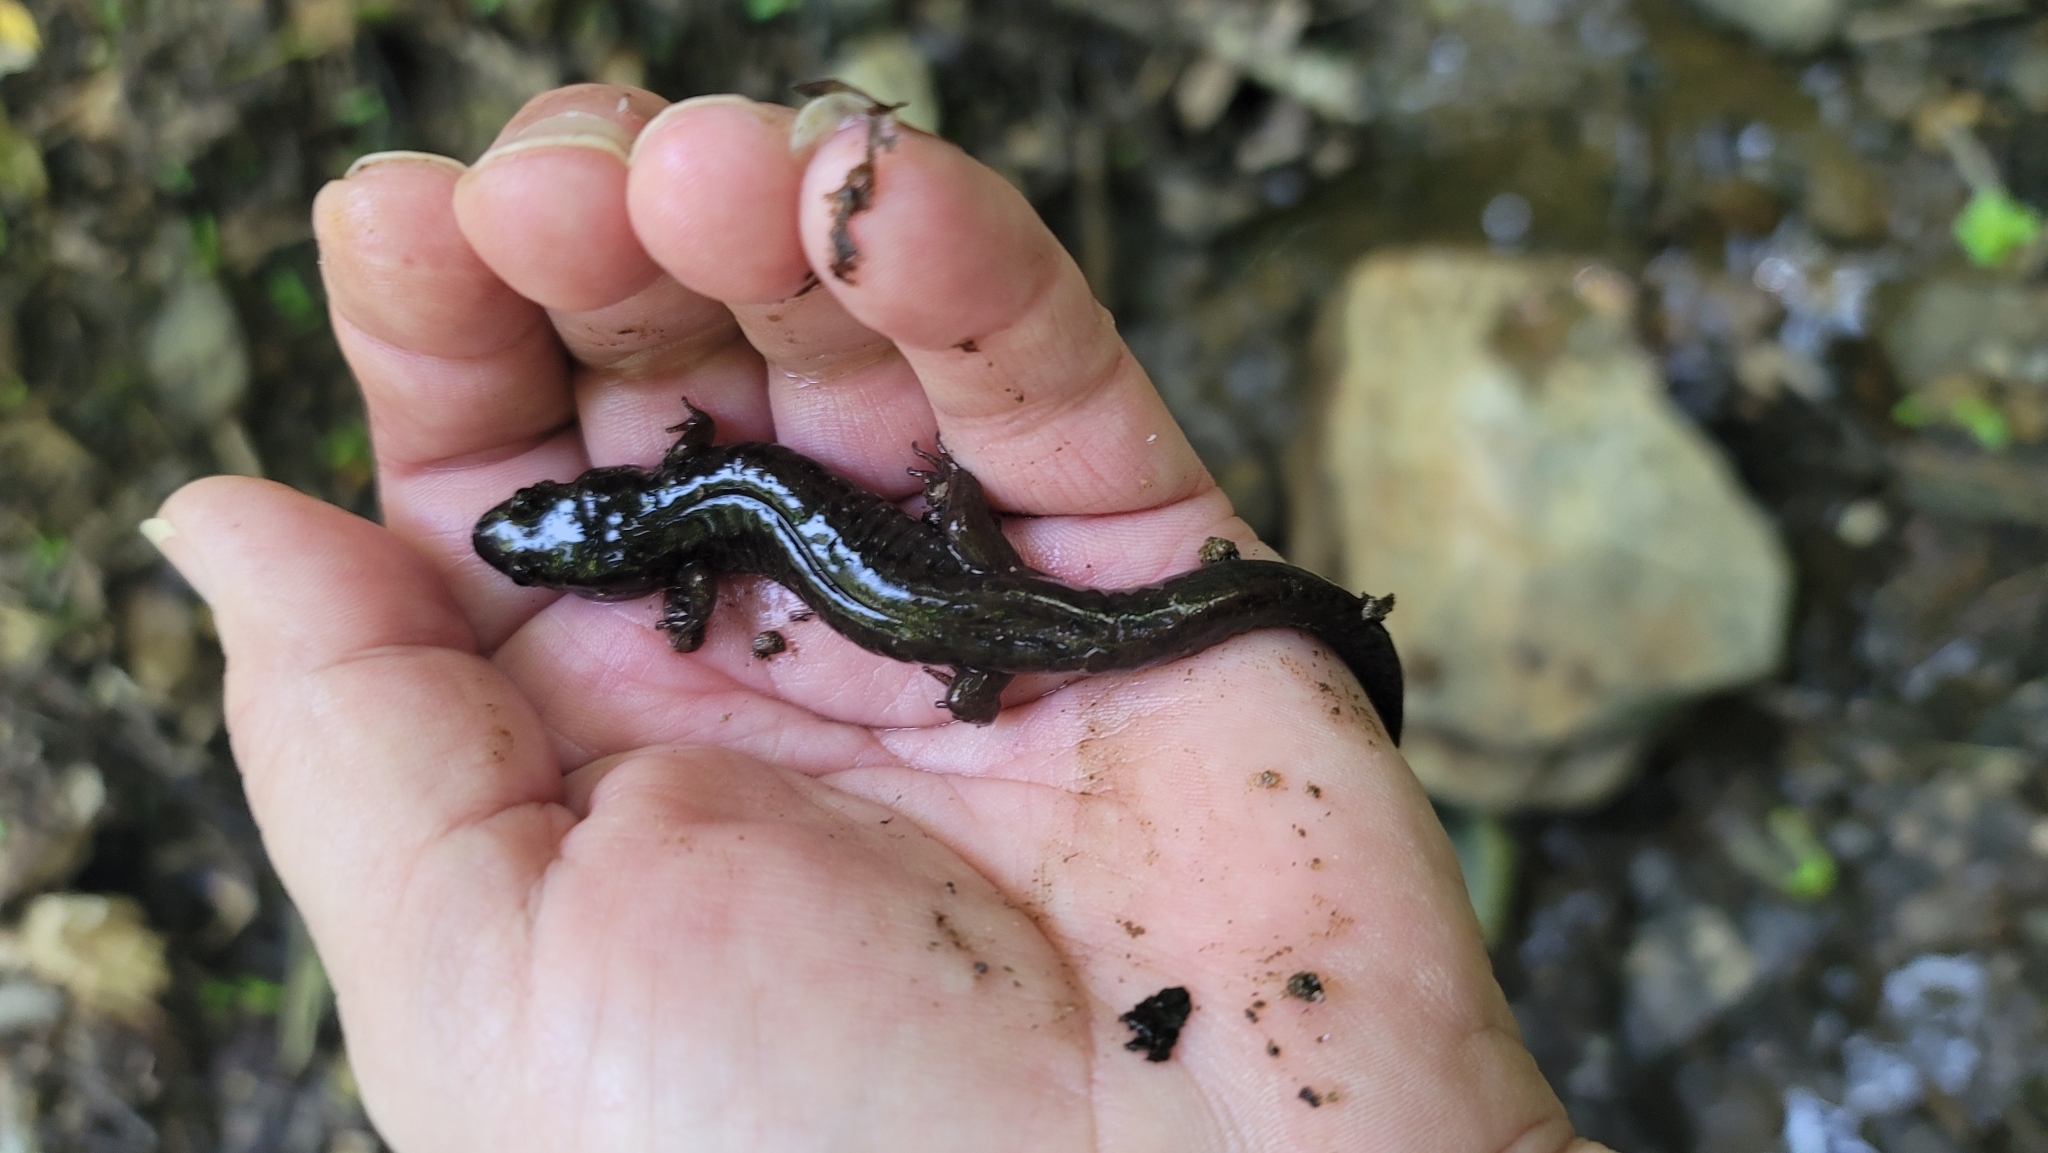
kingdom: Animalia
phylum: Chordata
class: Amphibia
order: Caudata
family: Plethodontidae
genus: Desmognathus
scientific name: Desmognathus monticola
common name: Seal salamander
